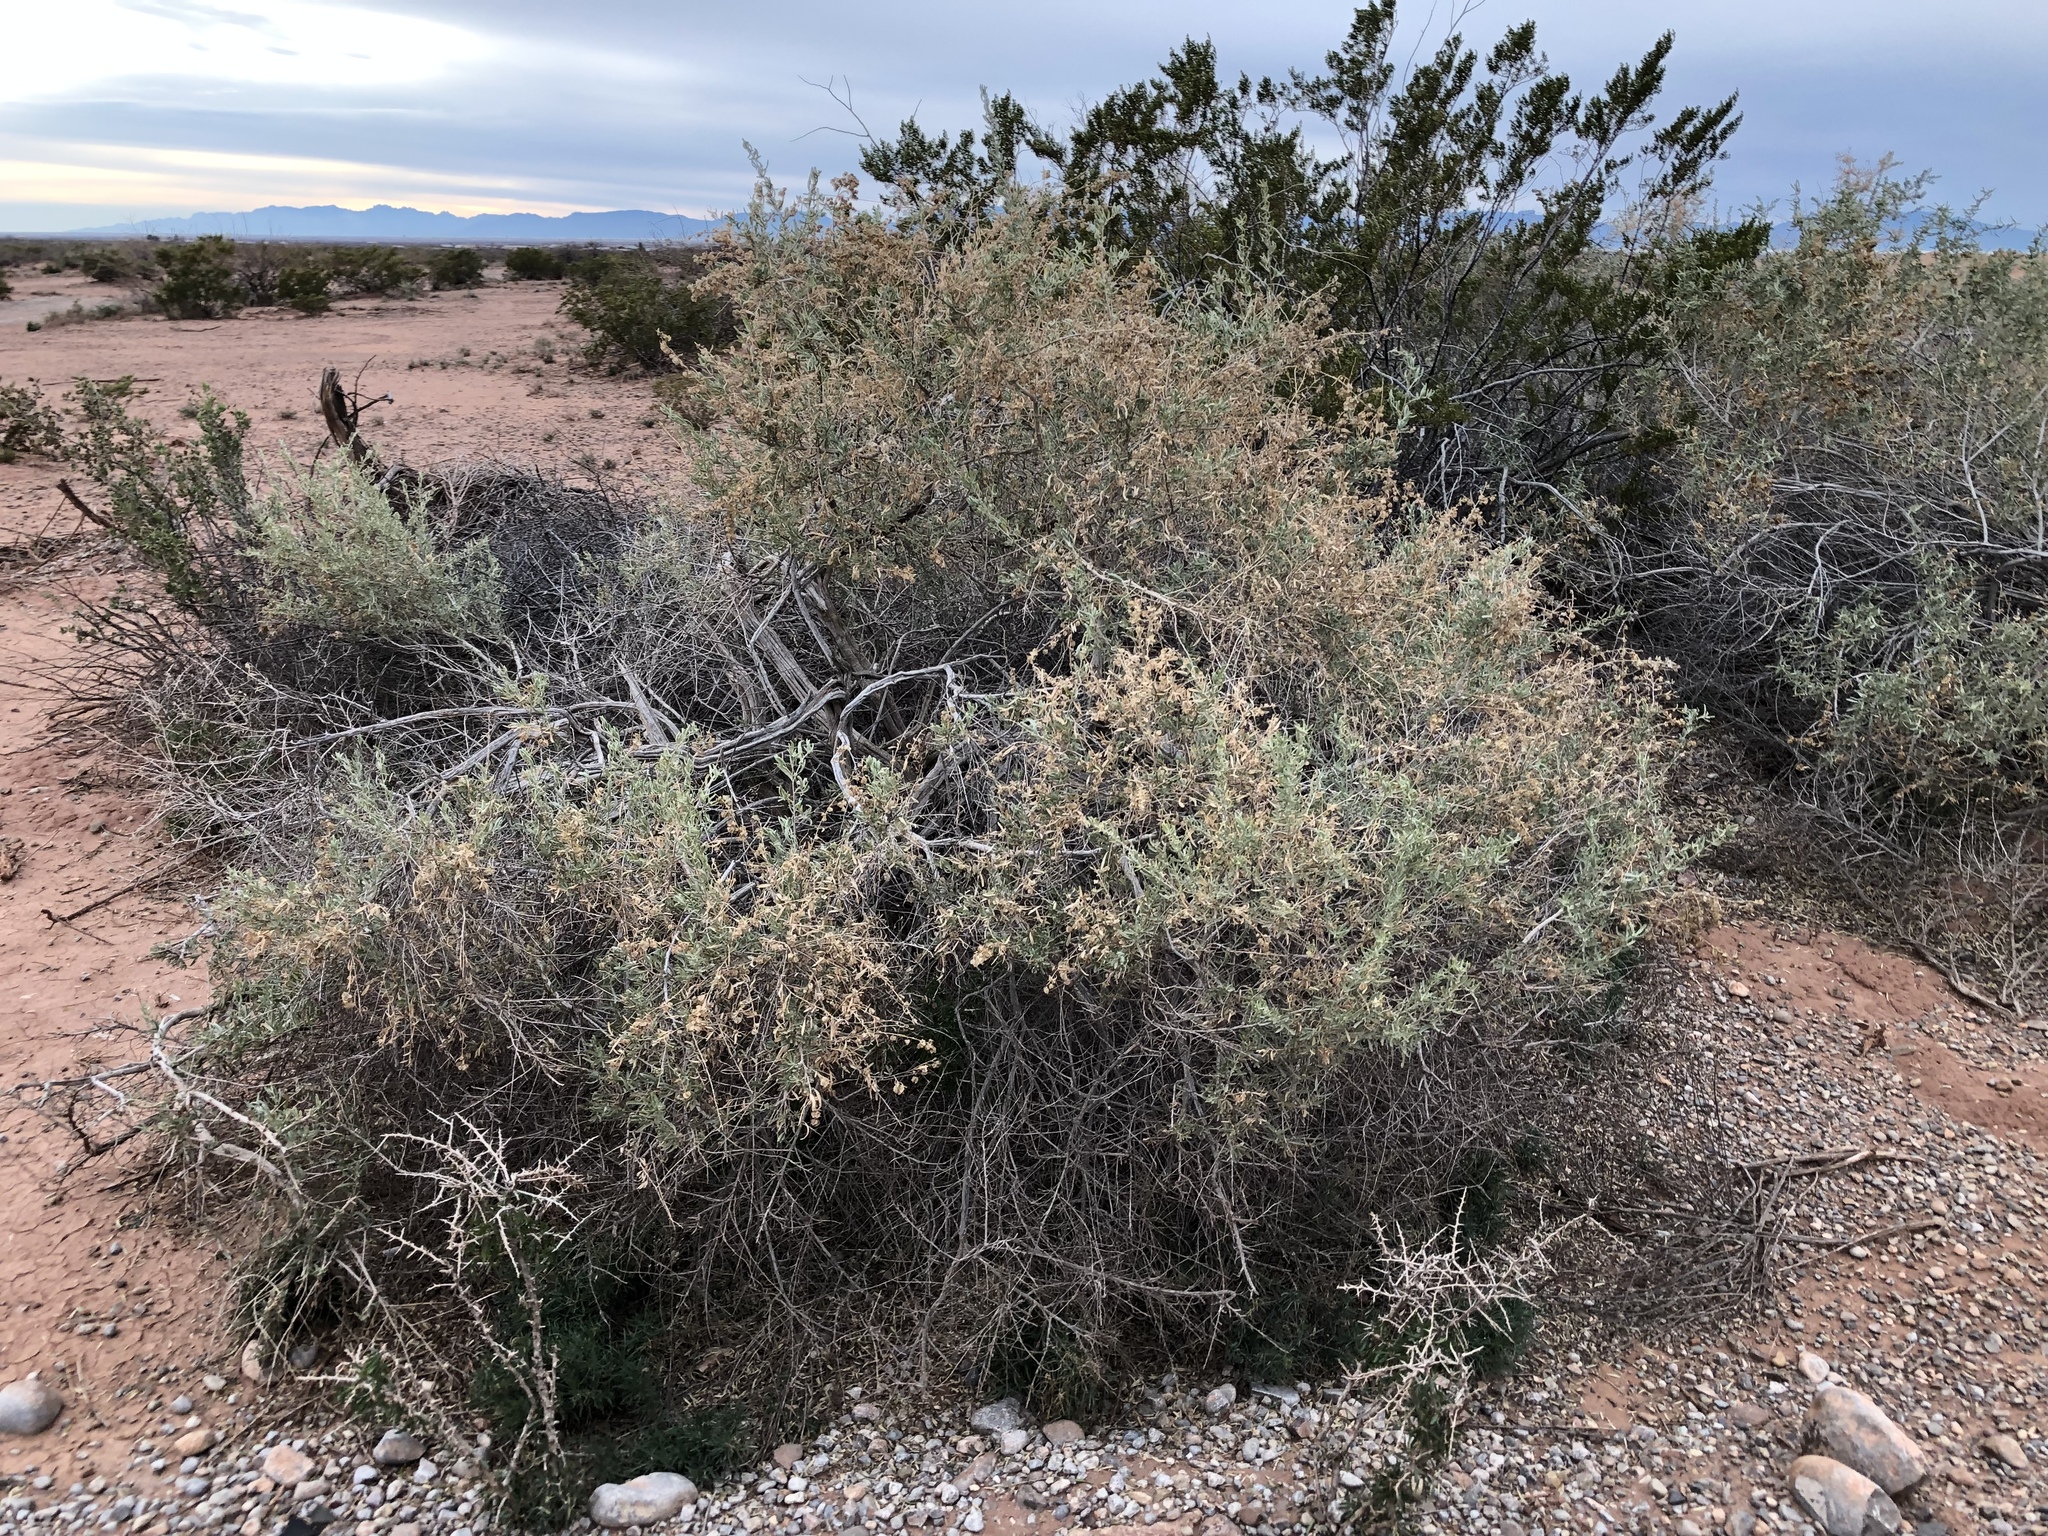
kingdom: Plantae
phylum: Tracheophyta
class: Magnoliopsida
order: Caryophyllales
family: Amaranthaceae
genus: Atriplex
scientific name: Atriplex canescens
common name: Four-wing saltbush
